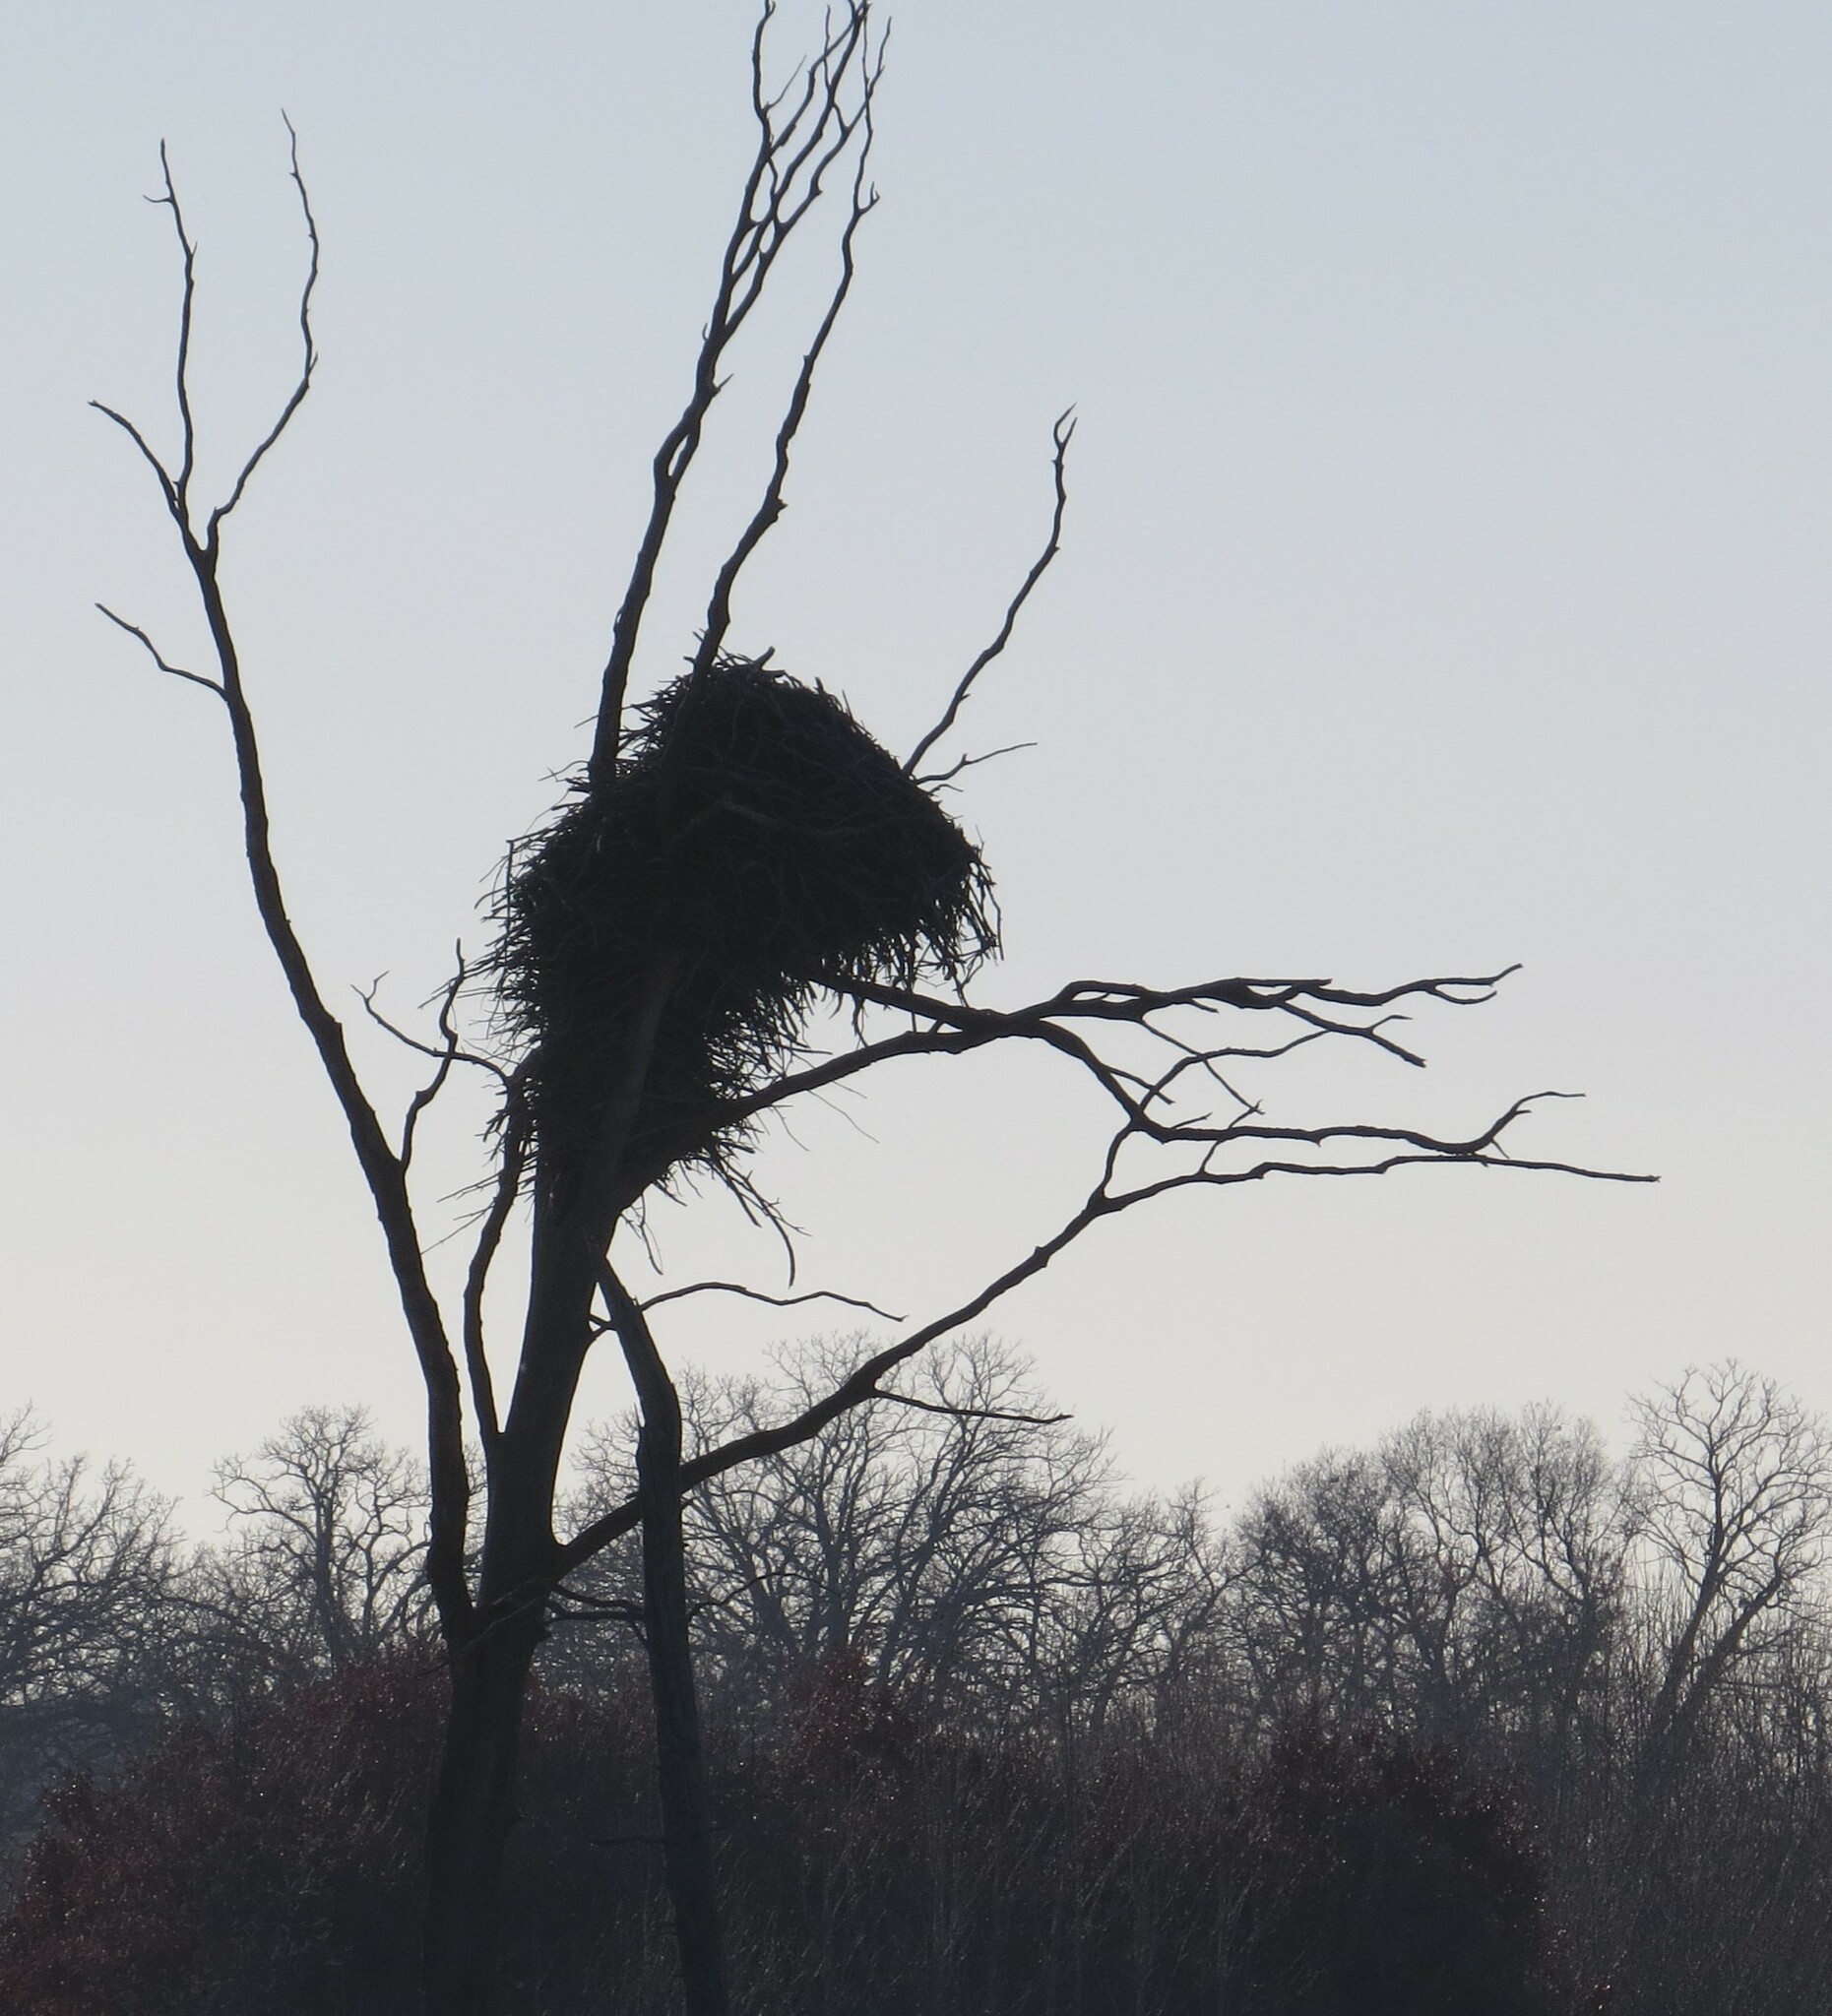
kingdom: Animalia
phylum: Chordata
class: Aves
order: Accipitriformes
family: Accipitridae
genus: Haliaeetus
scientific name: Haliaeetus leucocephalus
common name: Bald eagle
